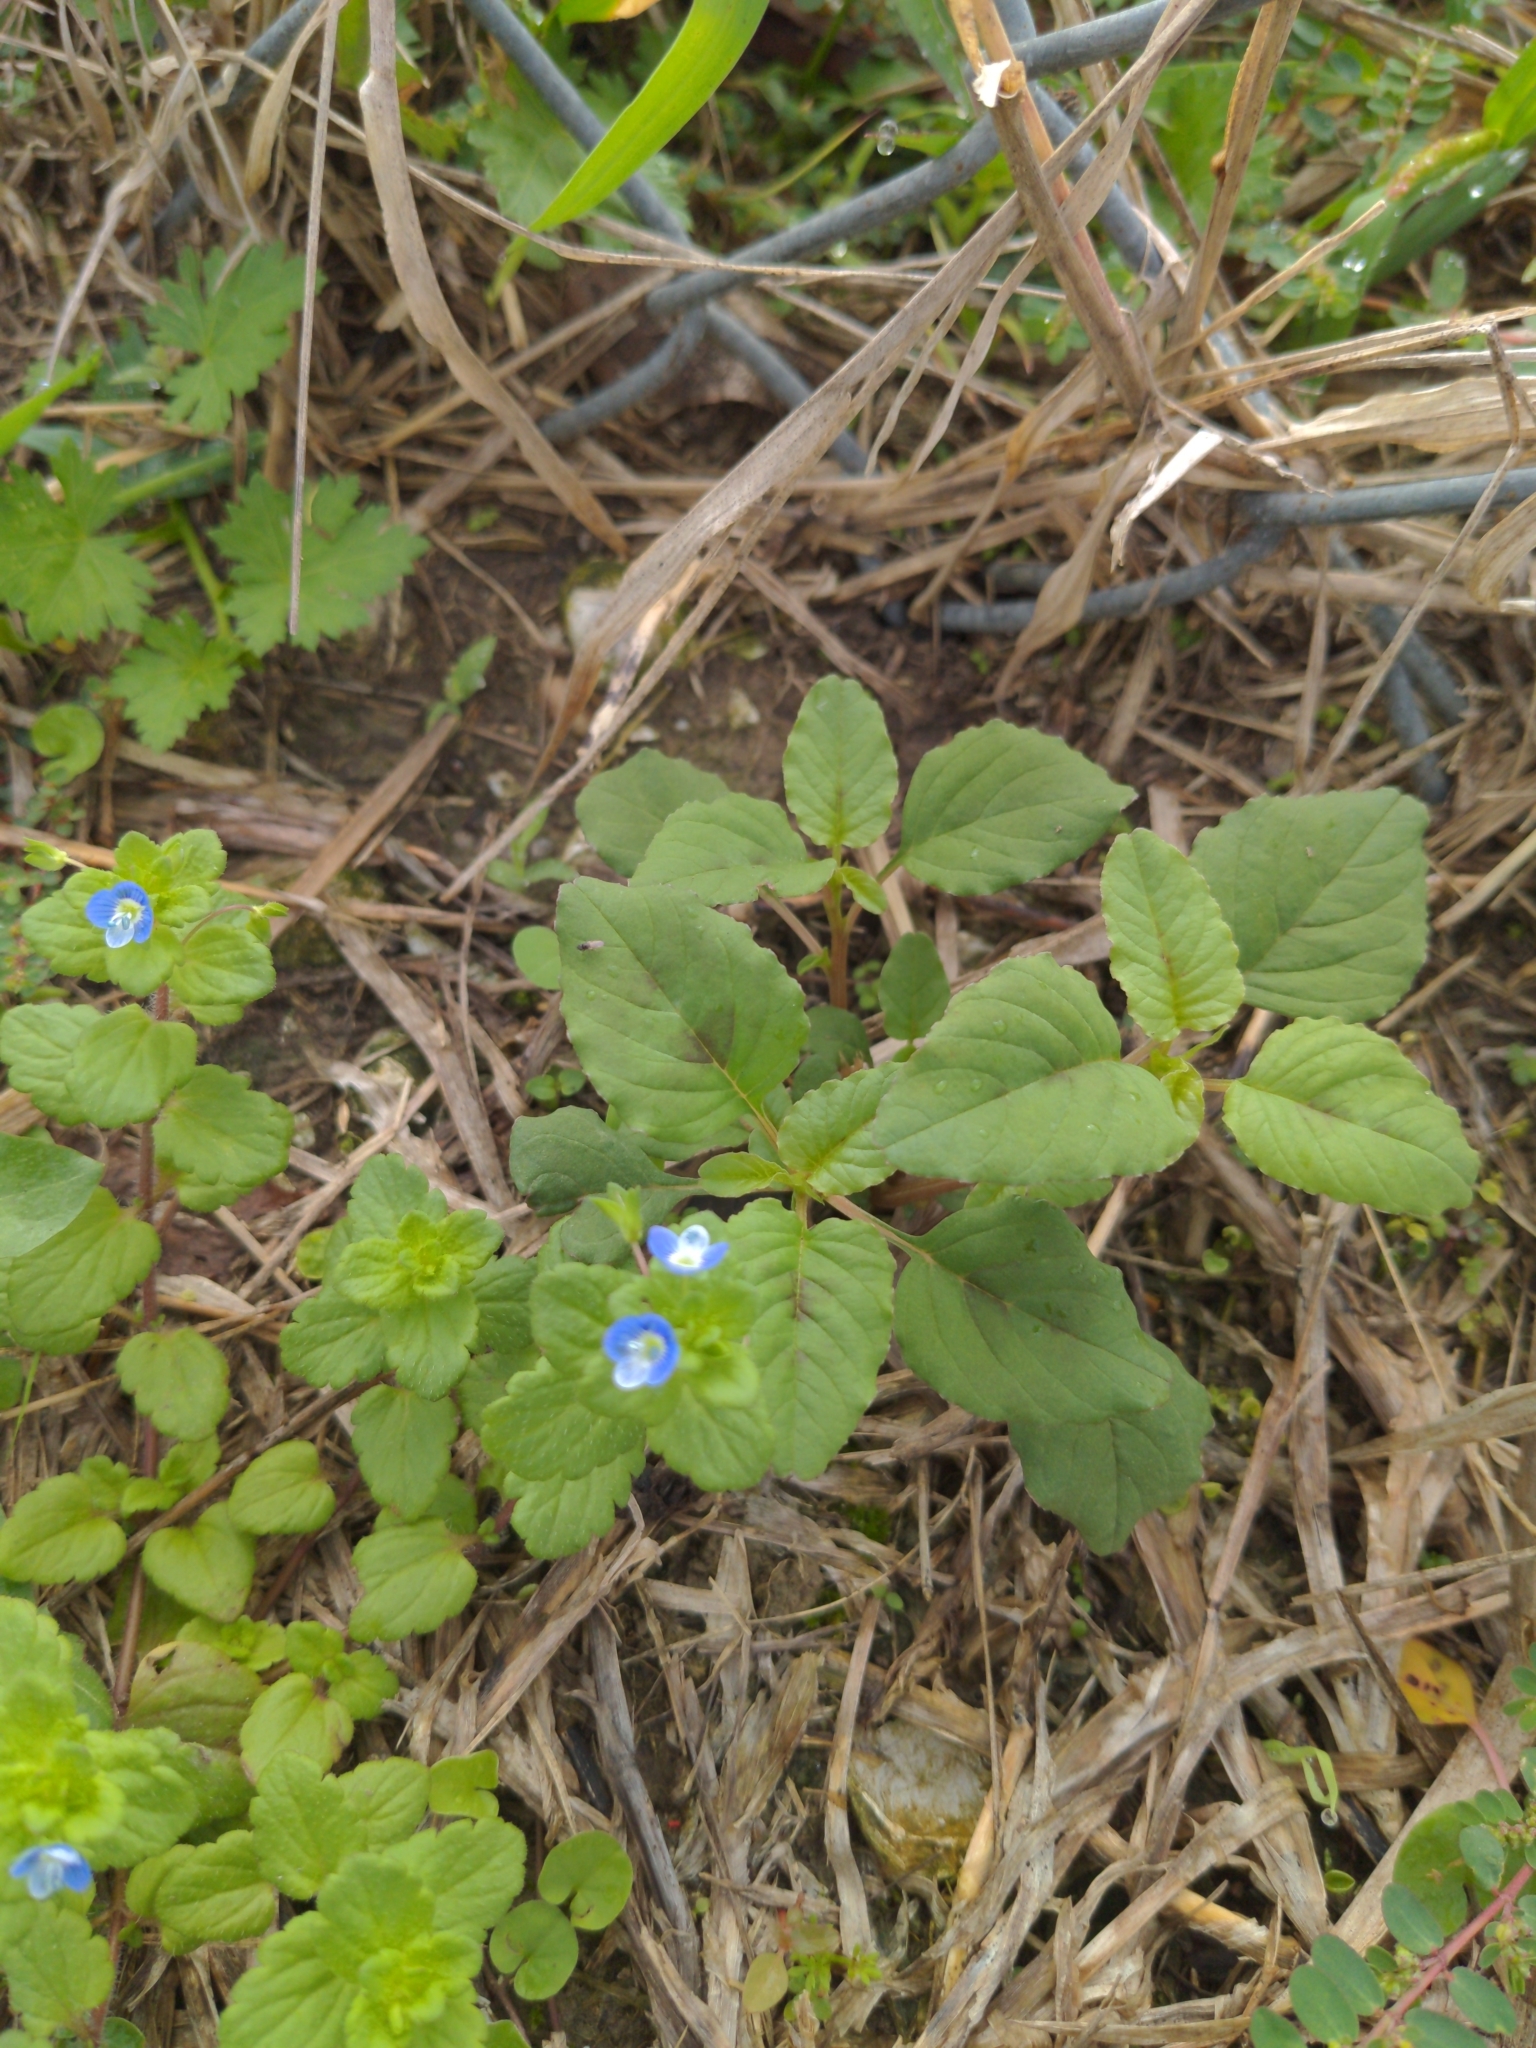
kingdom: Plantae
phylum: Tracheophyta
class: Magnoliopsida
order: Lamiales
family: Plantaginaceae
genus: Veronica
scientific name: Veronica persica
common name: Common field-speedwell
